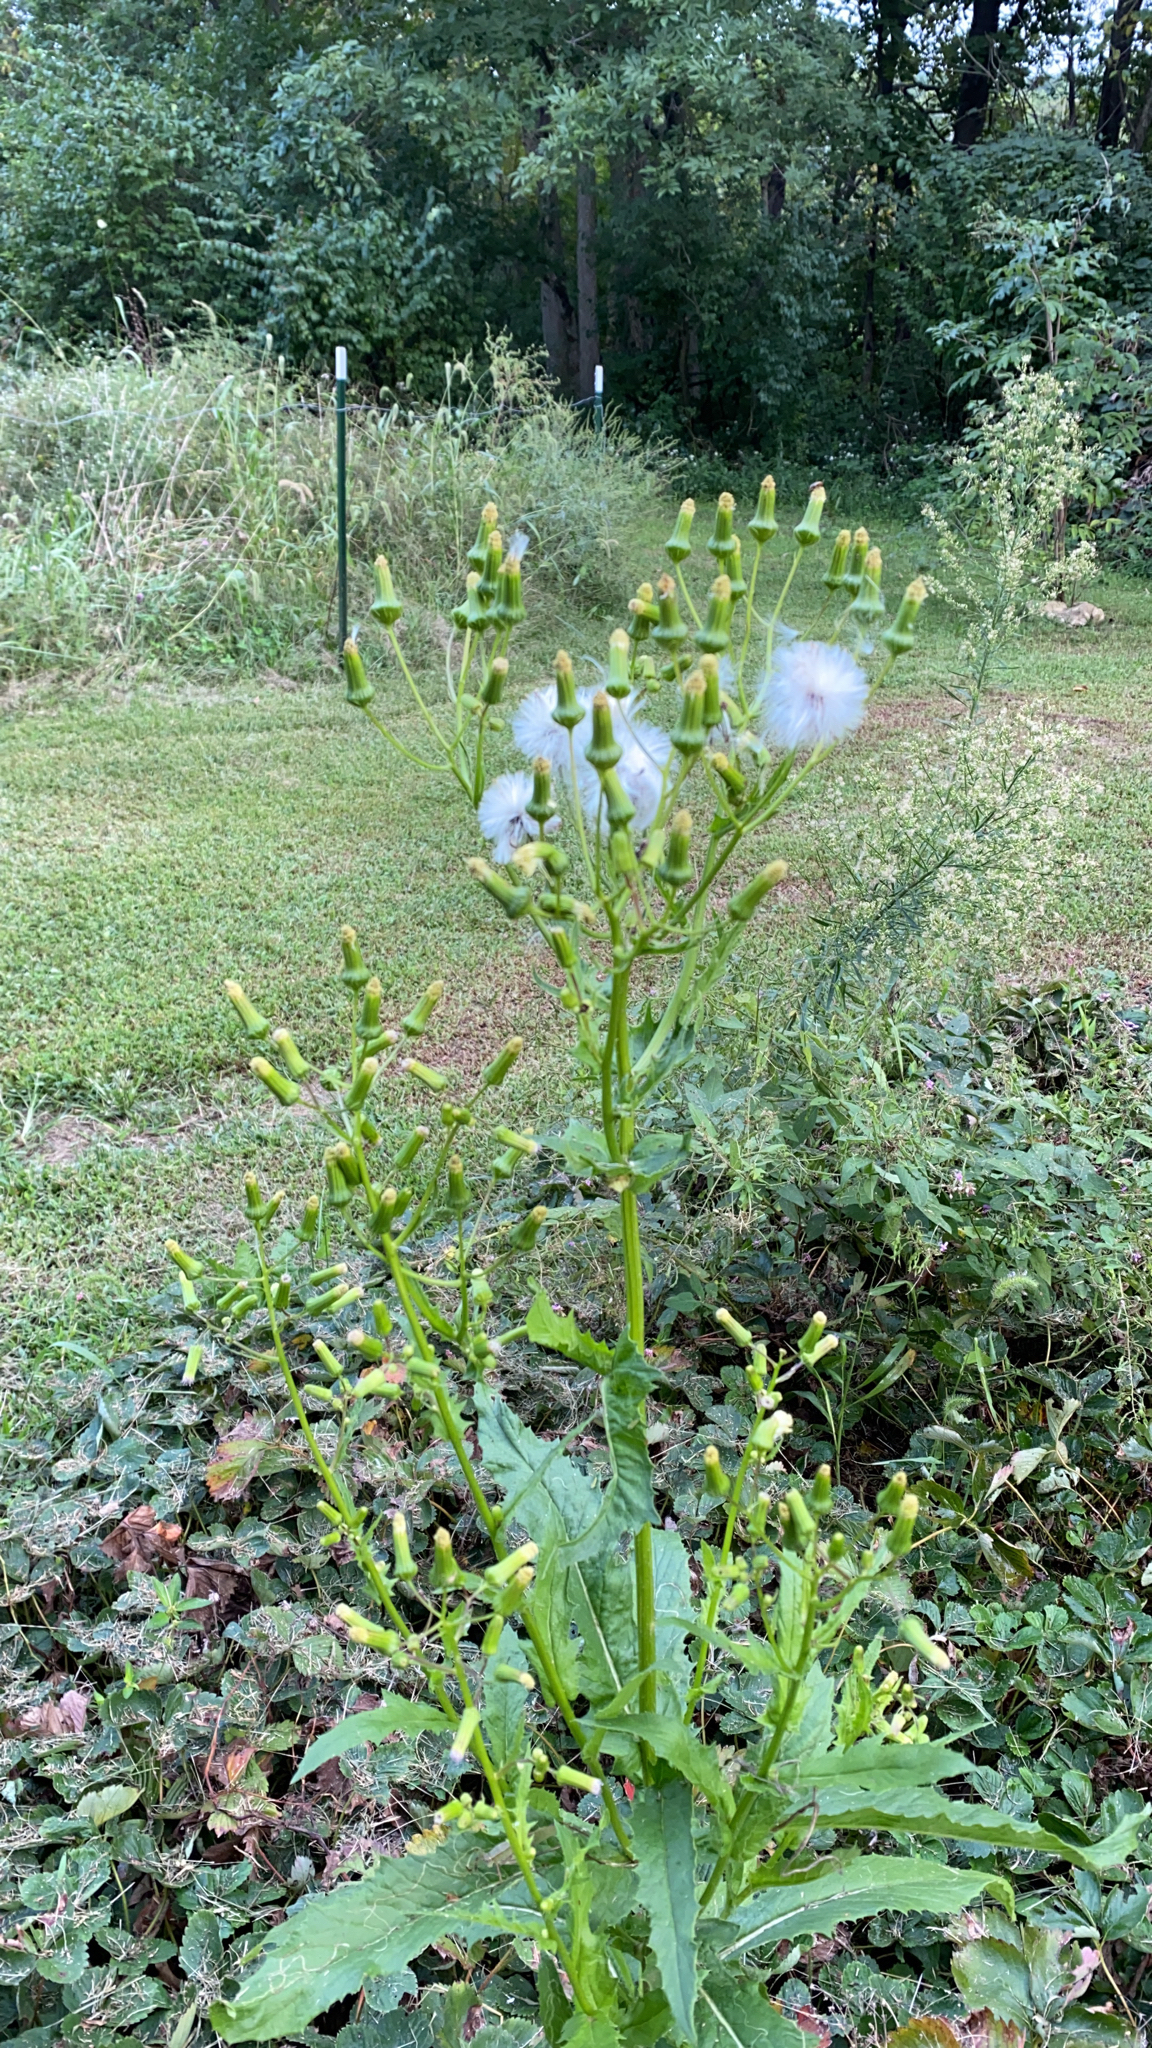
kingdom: Plantae
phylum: Tracheophyta
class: Magnoliopsida
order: Asterales
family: Asteraceae
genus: Erechtites
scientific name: Erechtites hieraciifolius
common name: American burnweed
